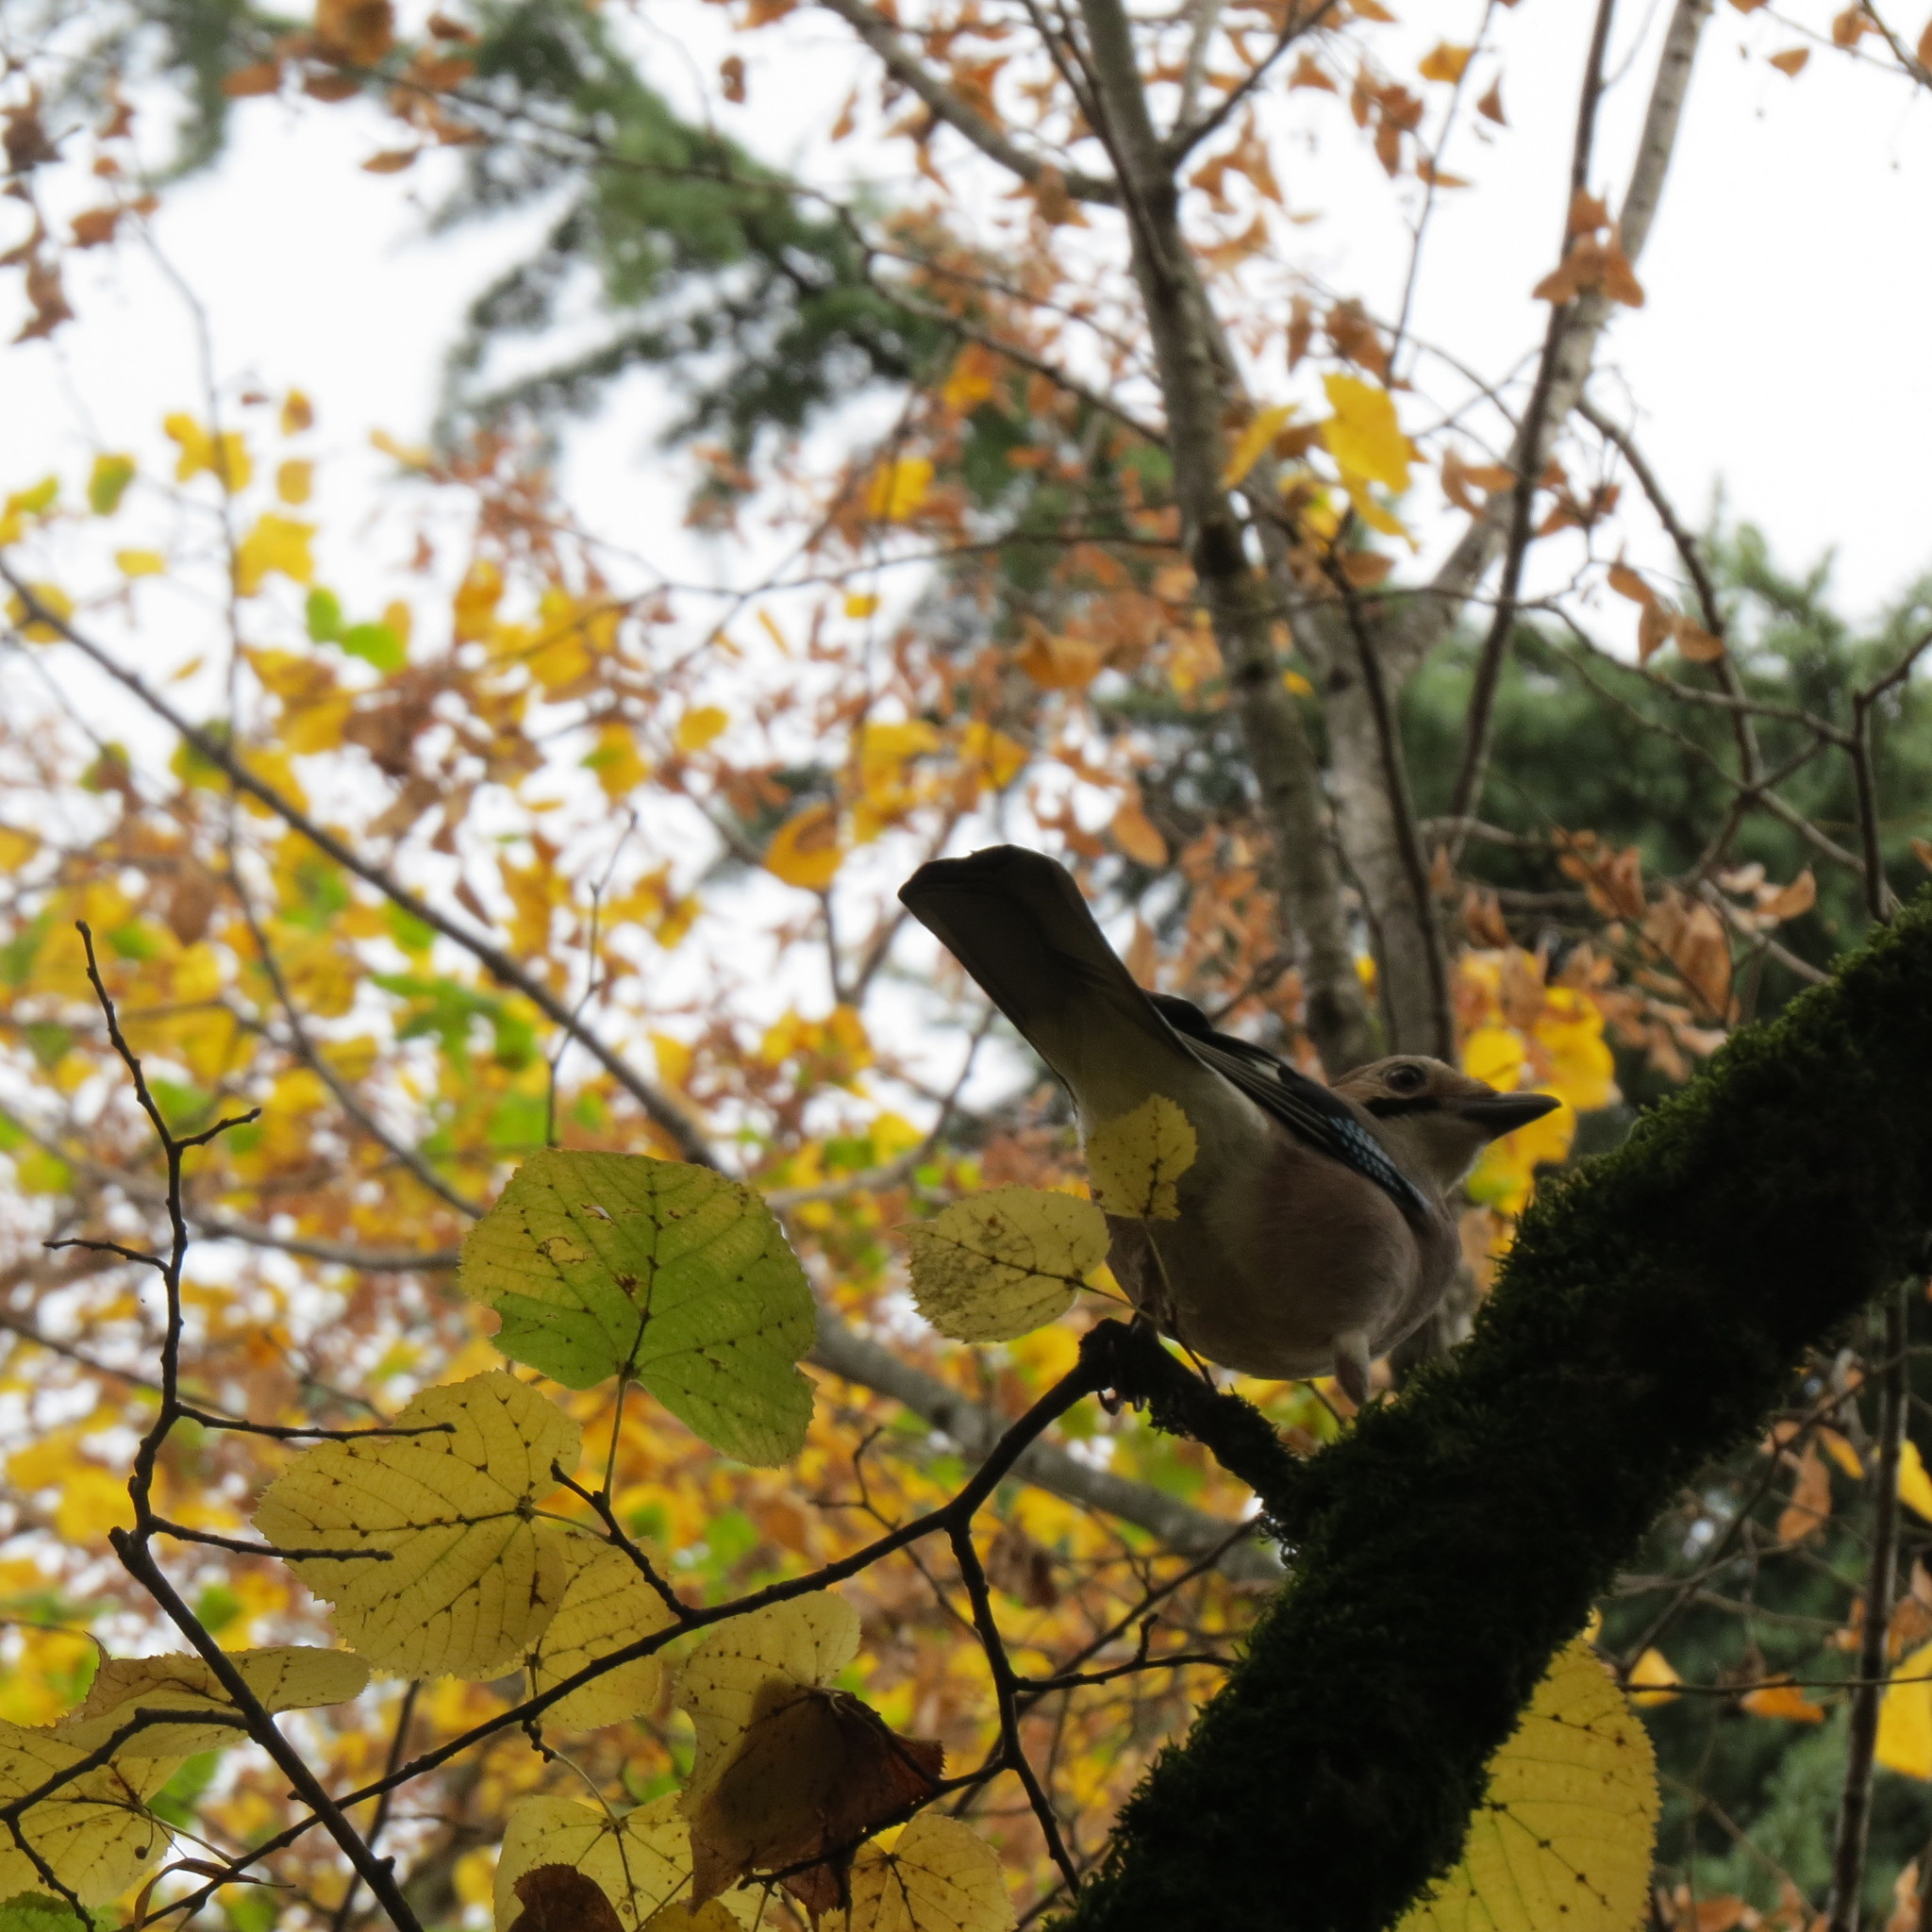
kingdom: Animalia
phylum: Chordata
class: Aves
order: Passeriformes
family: Corvidae
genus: Garrulus
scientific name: Garrulus glandarius
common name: Eurasian jay
